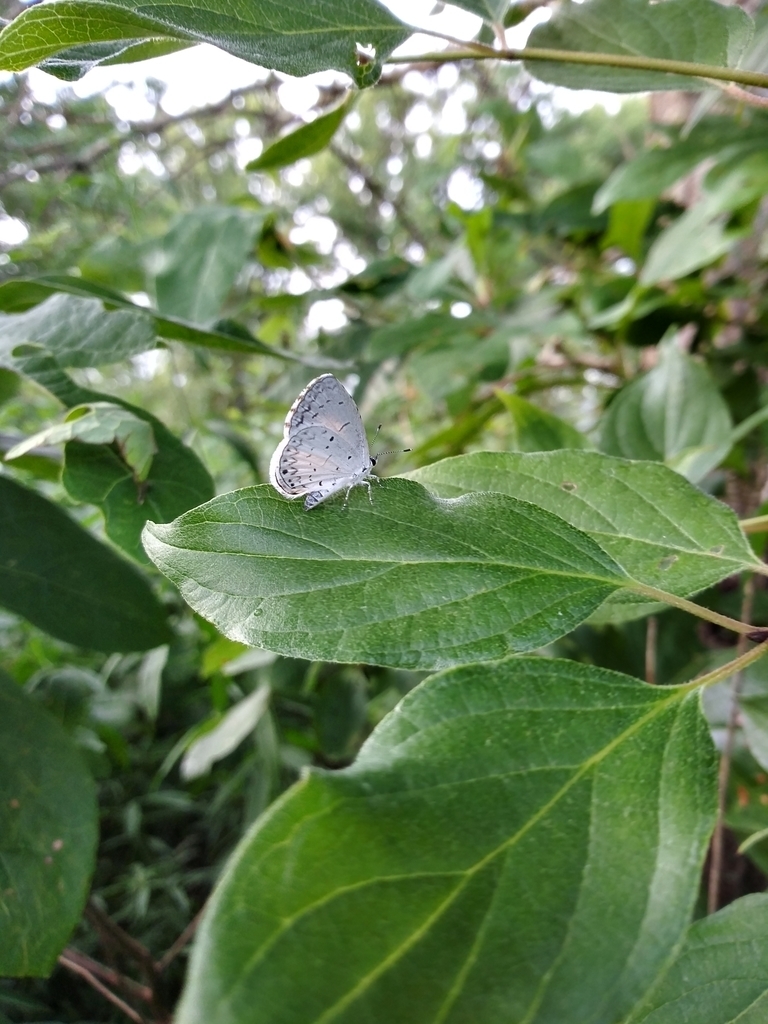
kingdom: Animalia
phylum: Arthropoda
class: Insecta
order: Lepidoptera
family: Lycaenidae
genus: Cyaniris
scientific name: Cyaniris neglecta
